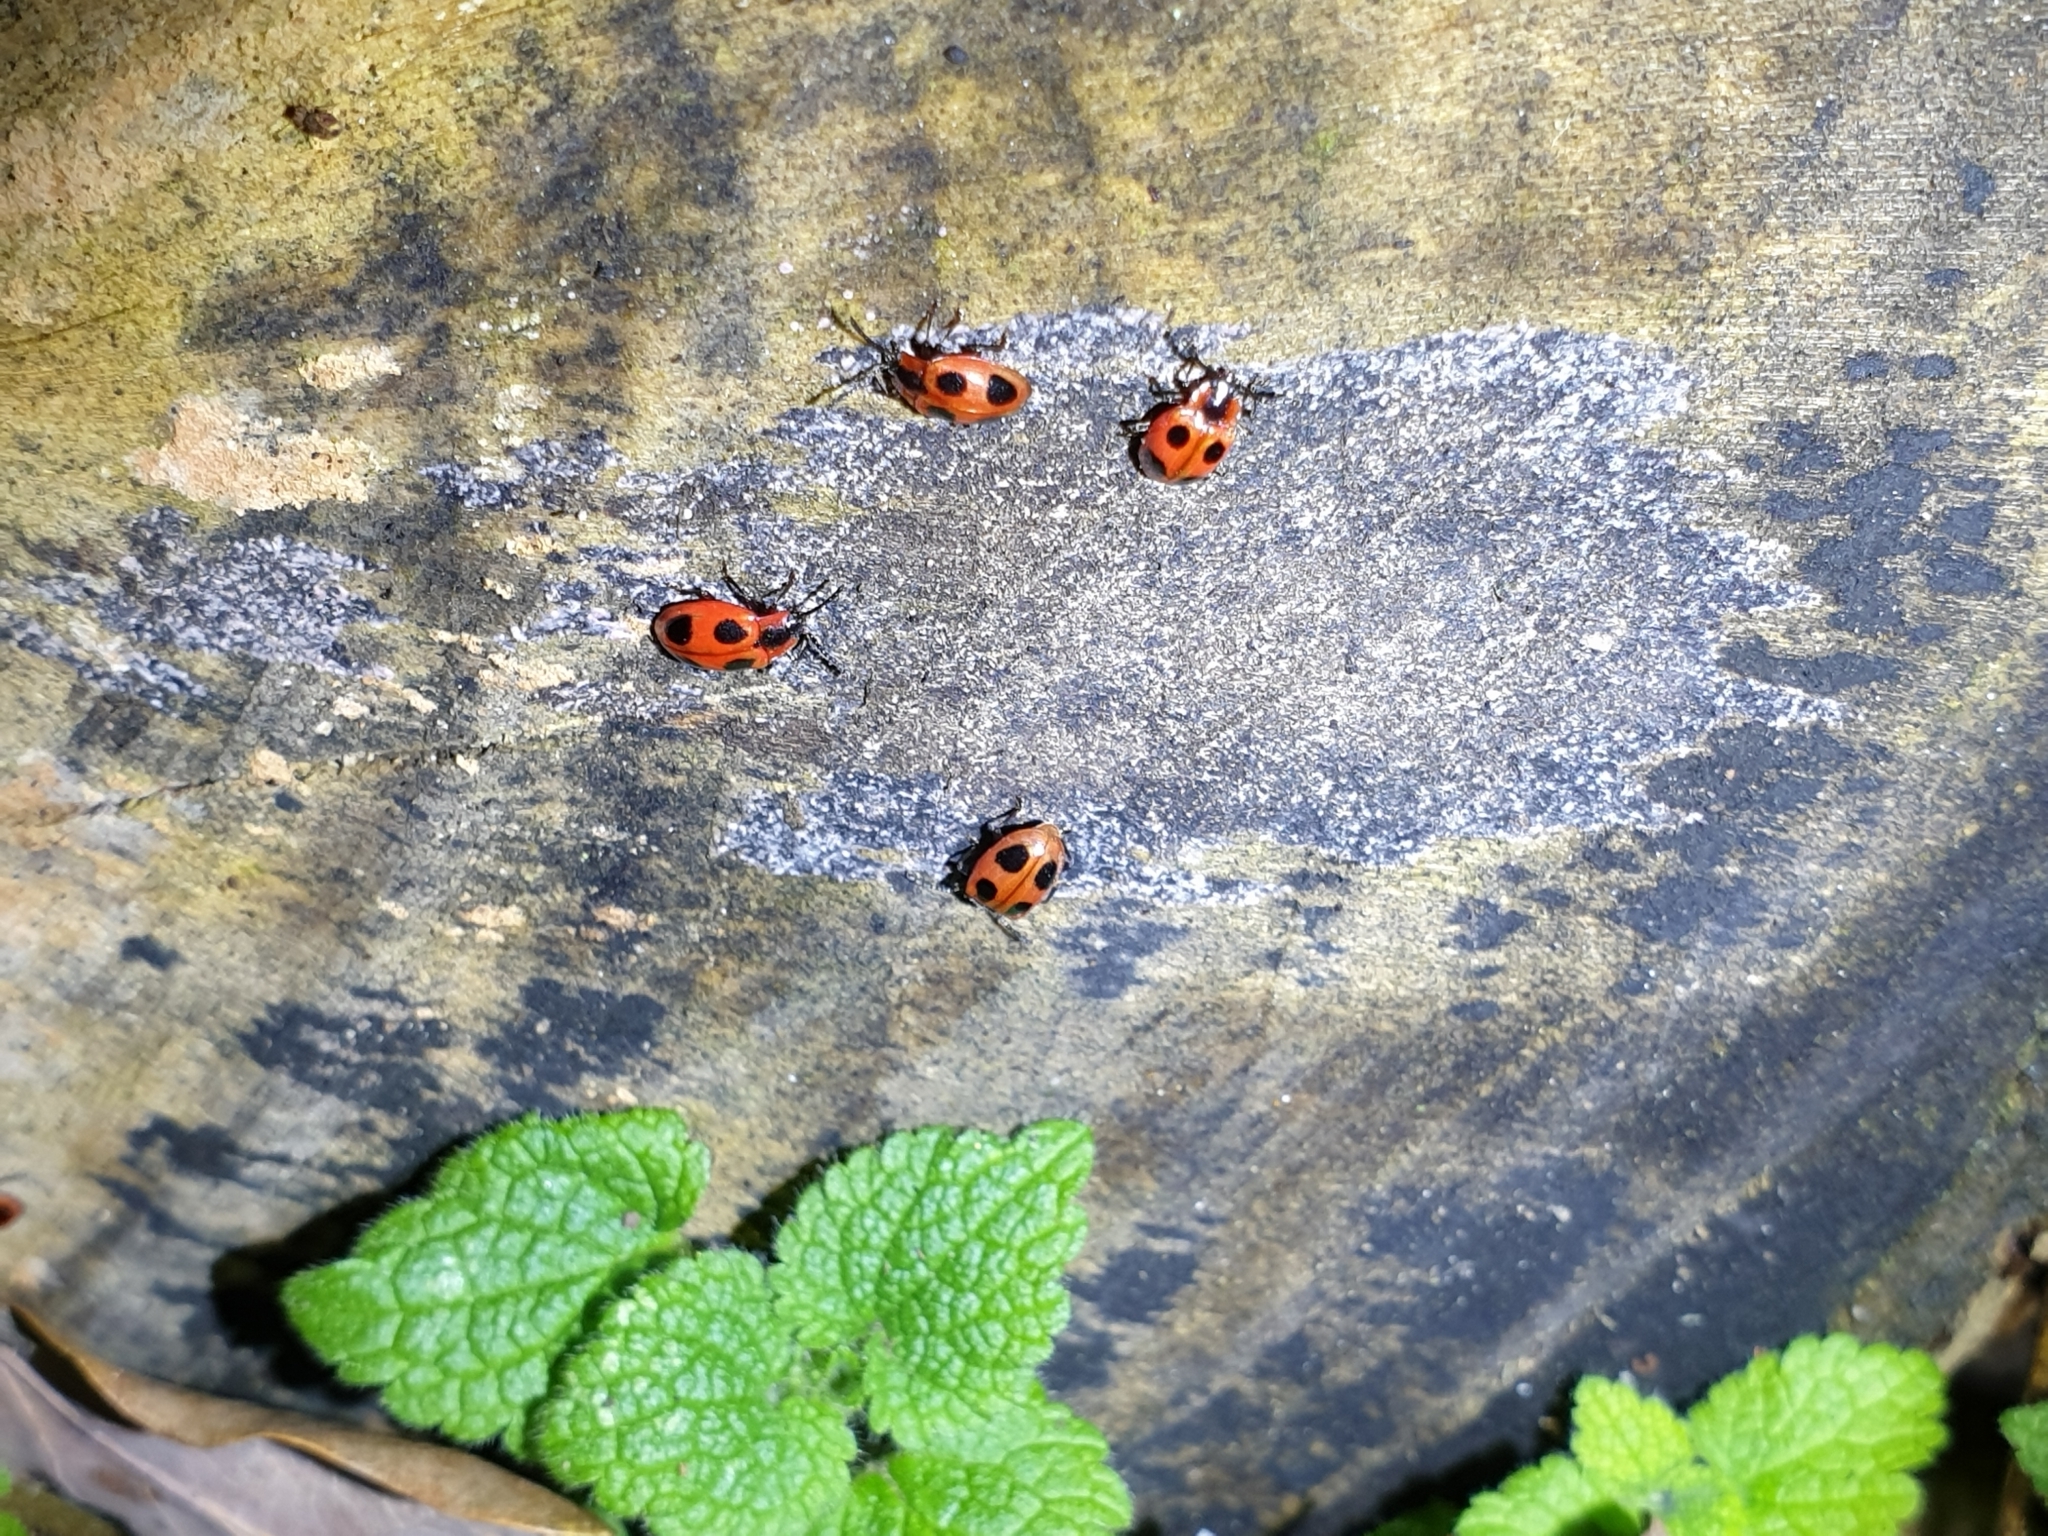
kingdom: Animalia
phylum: Arthropoda
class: Insecta
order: Coleoptera
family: Endomychidae
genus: Endomychus
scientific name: Endomychus coccineus
